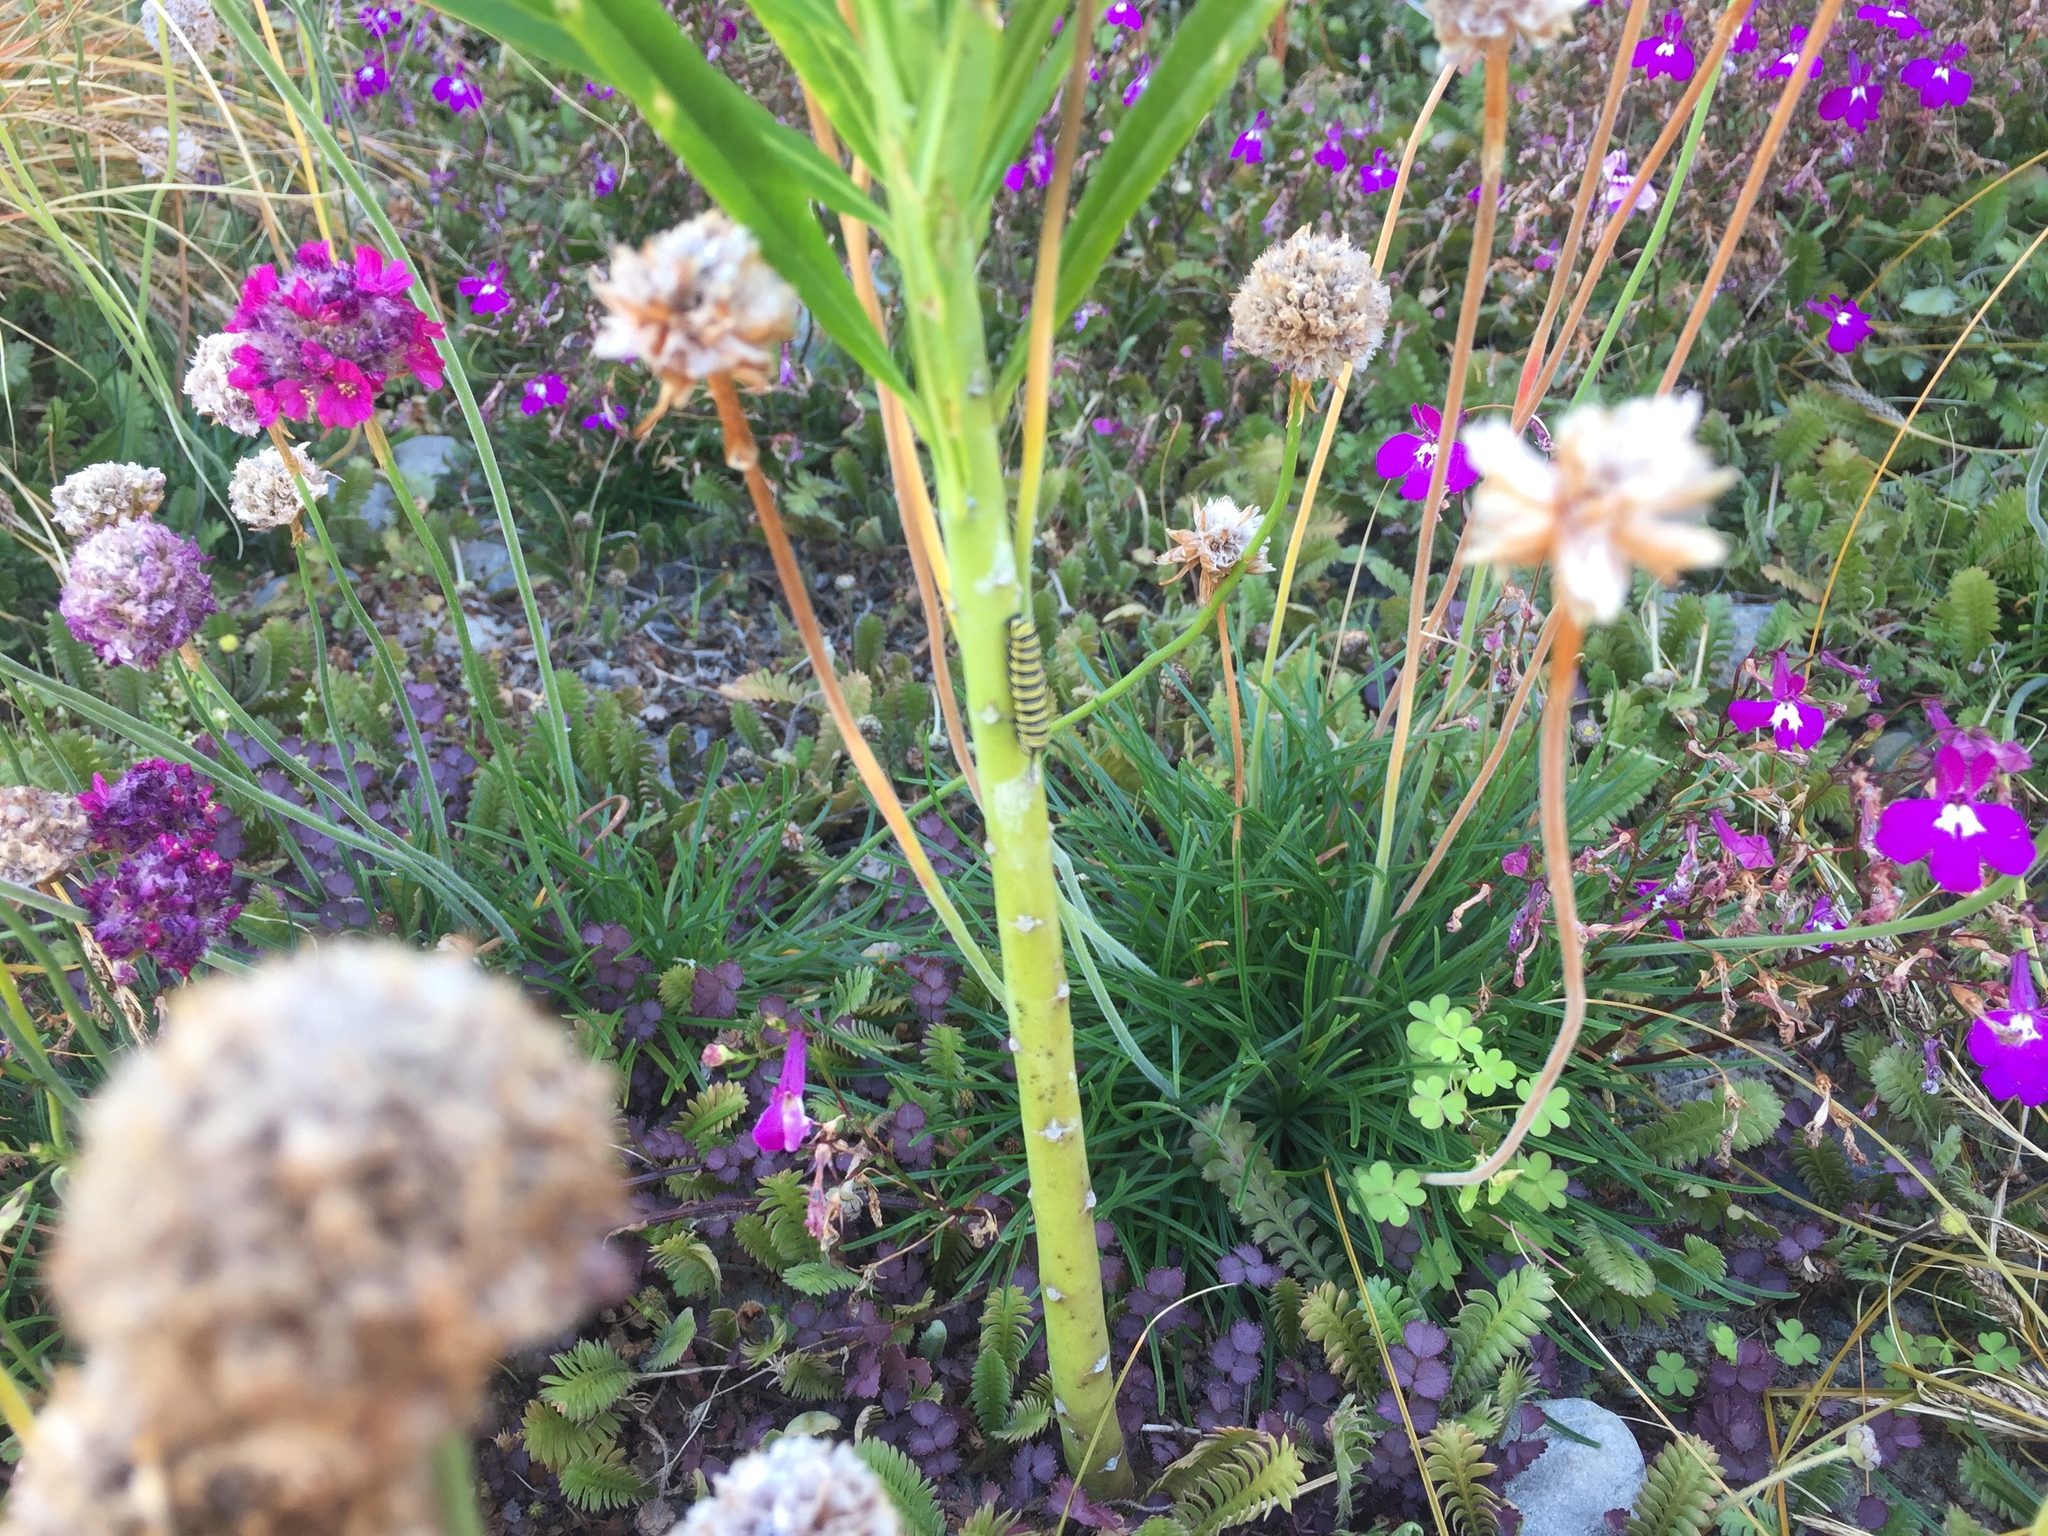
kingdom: Animalia
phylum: Arthropoda
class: Insecta
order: Lepidoptera
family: Nymphalidae
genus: Danaus
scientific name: Danaus plexippus
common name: Monarch
